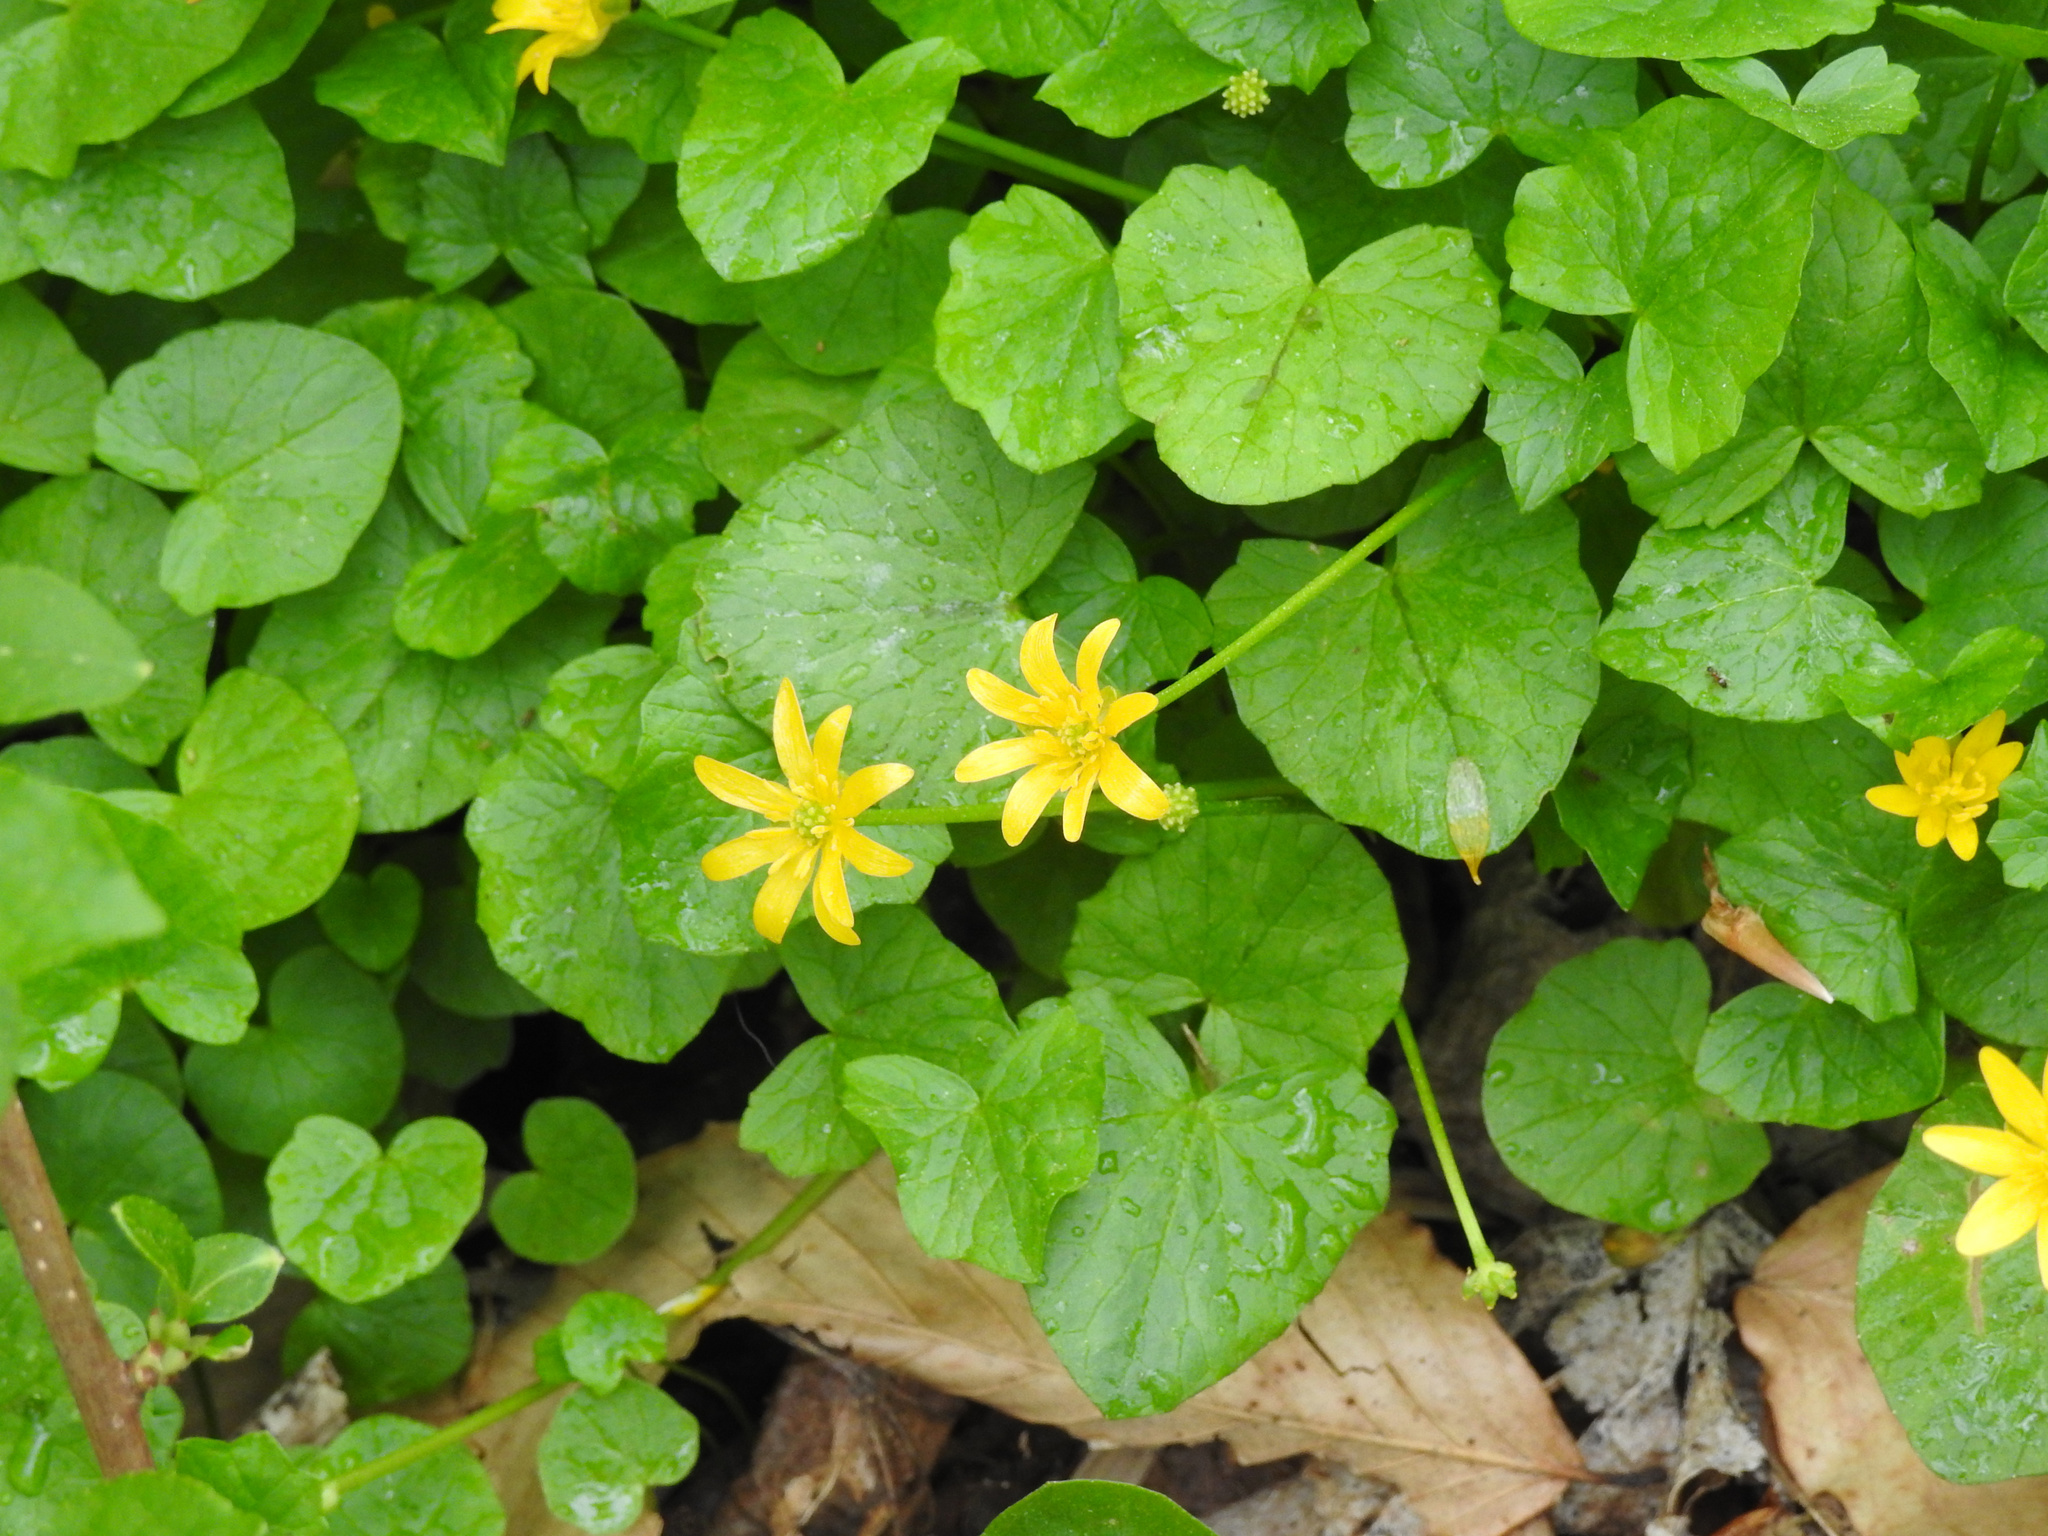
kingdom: Plantae
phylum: Tracheophyta
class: Magnoliopsida
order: Ranunculales
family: Ranunculaceae
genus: Ficaria
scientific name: Ficaria verna
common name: Lesser celandine
